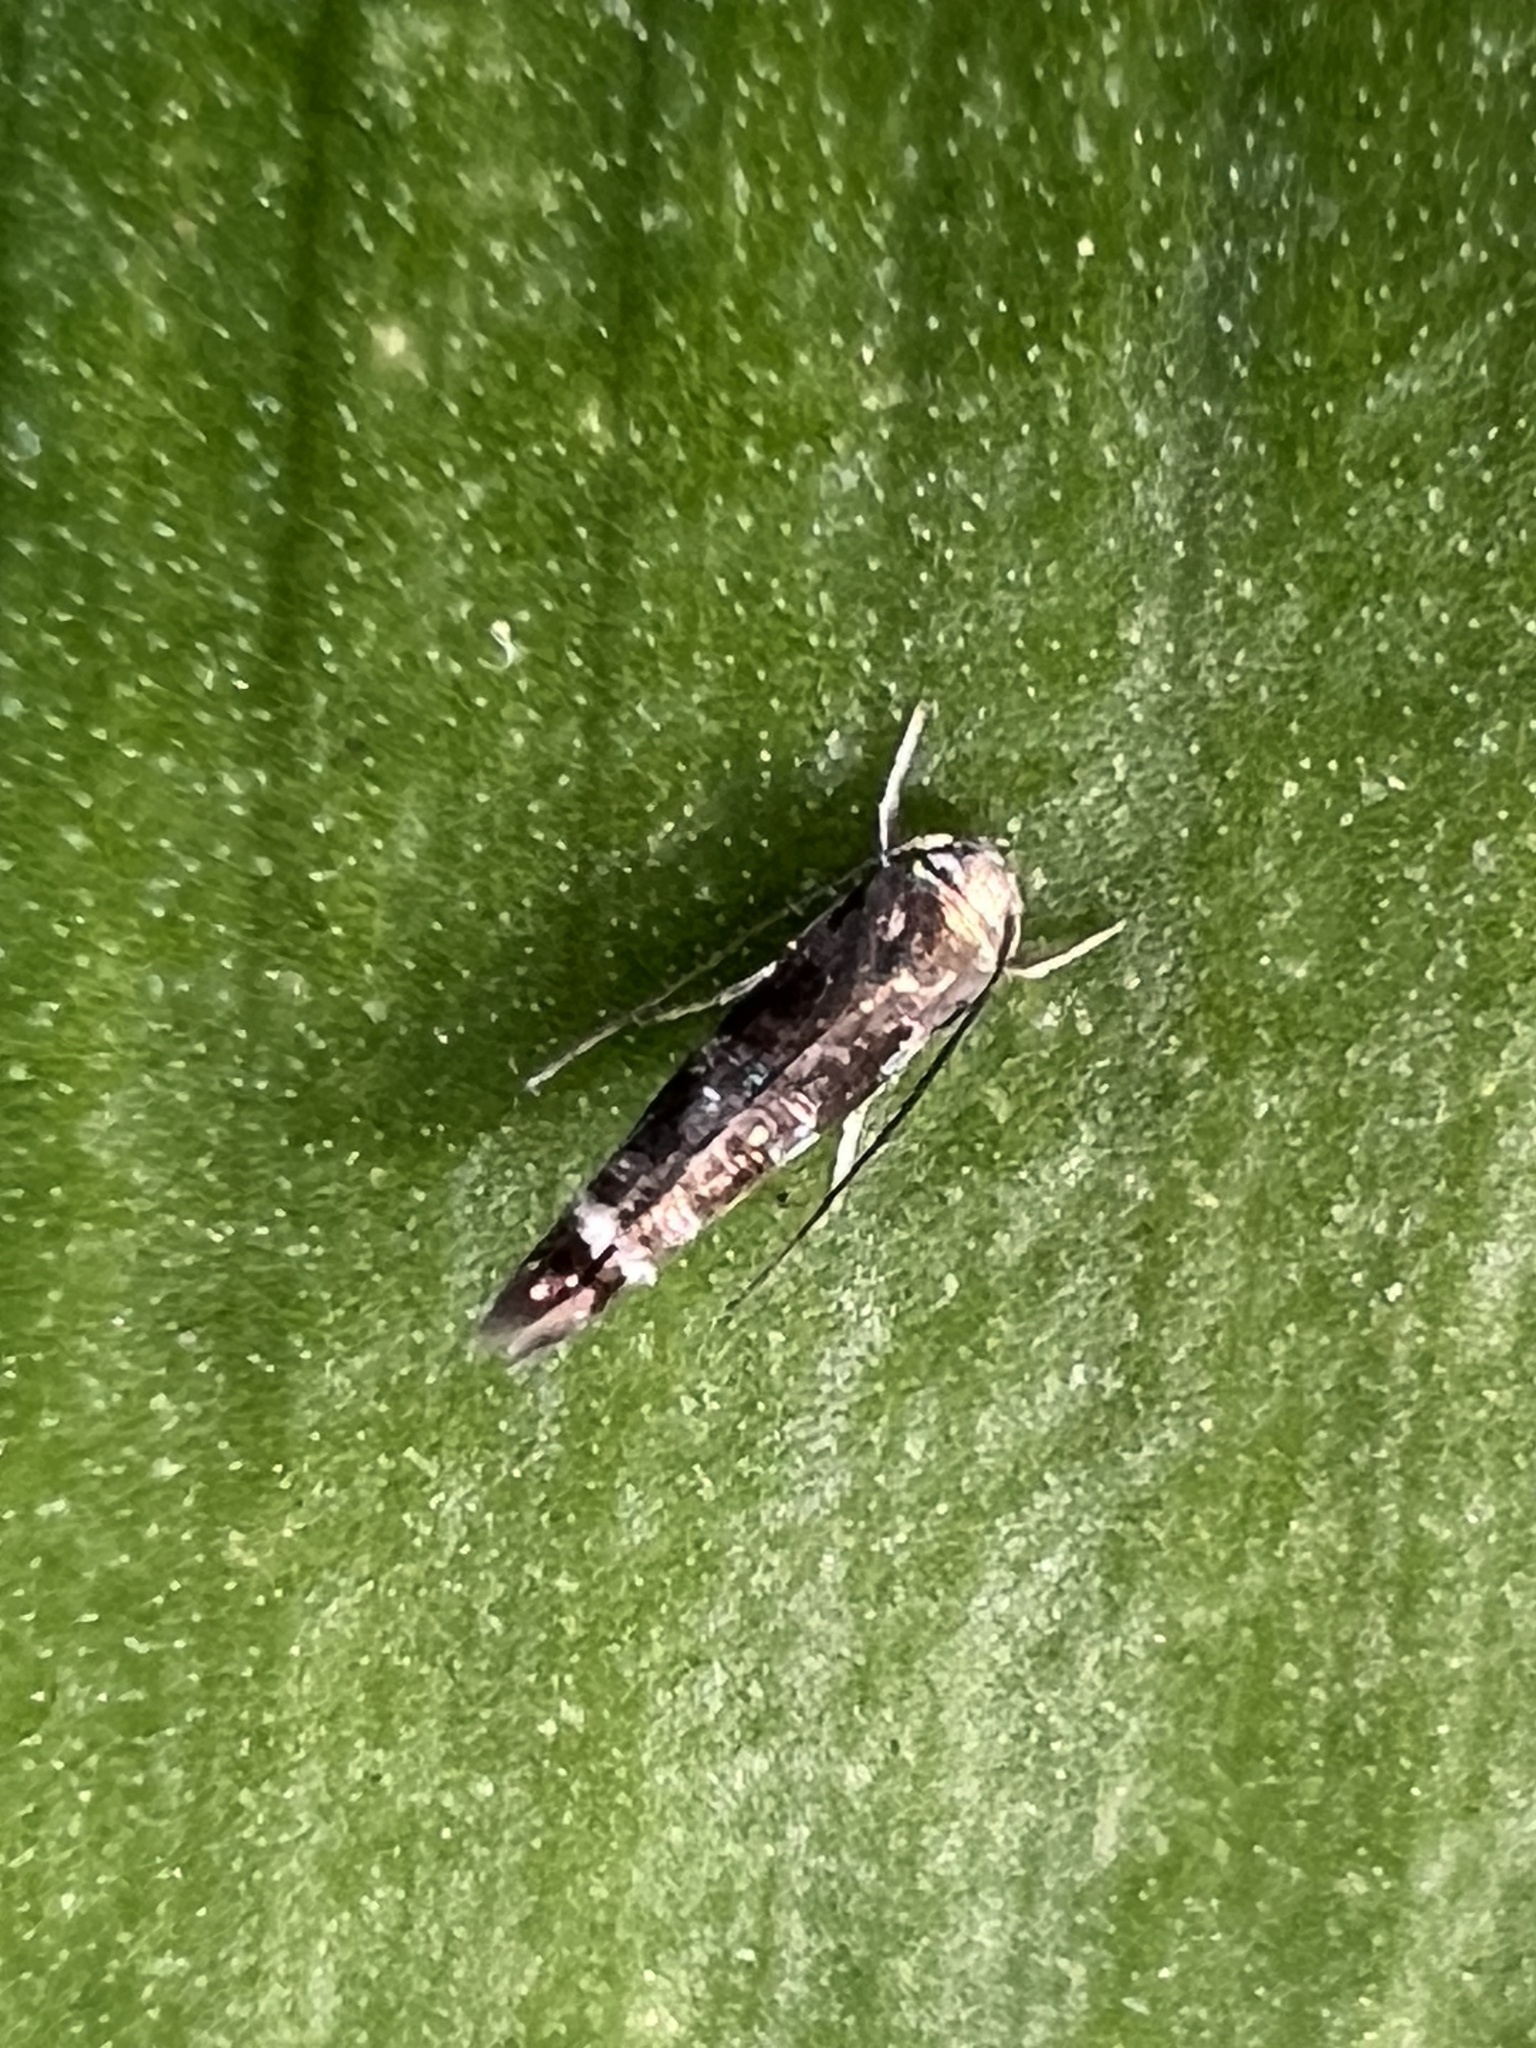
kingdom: Animalia
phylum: Arthropoda
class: Insecta
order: Lepidoptera
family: Momphidae
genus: Zapyrastra
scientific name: Zapyrastra calliphana
